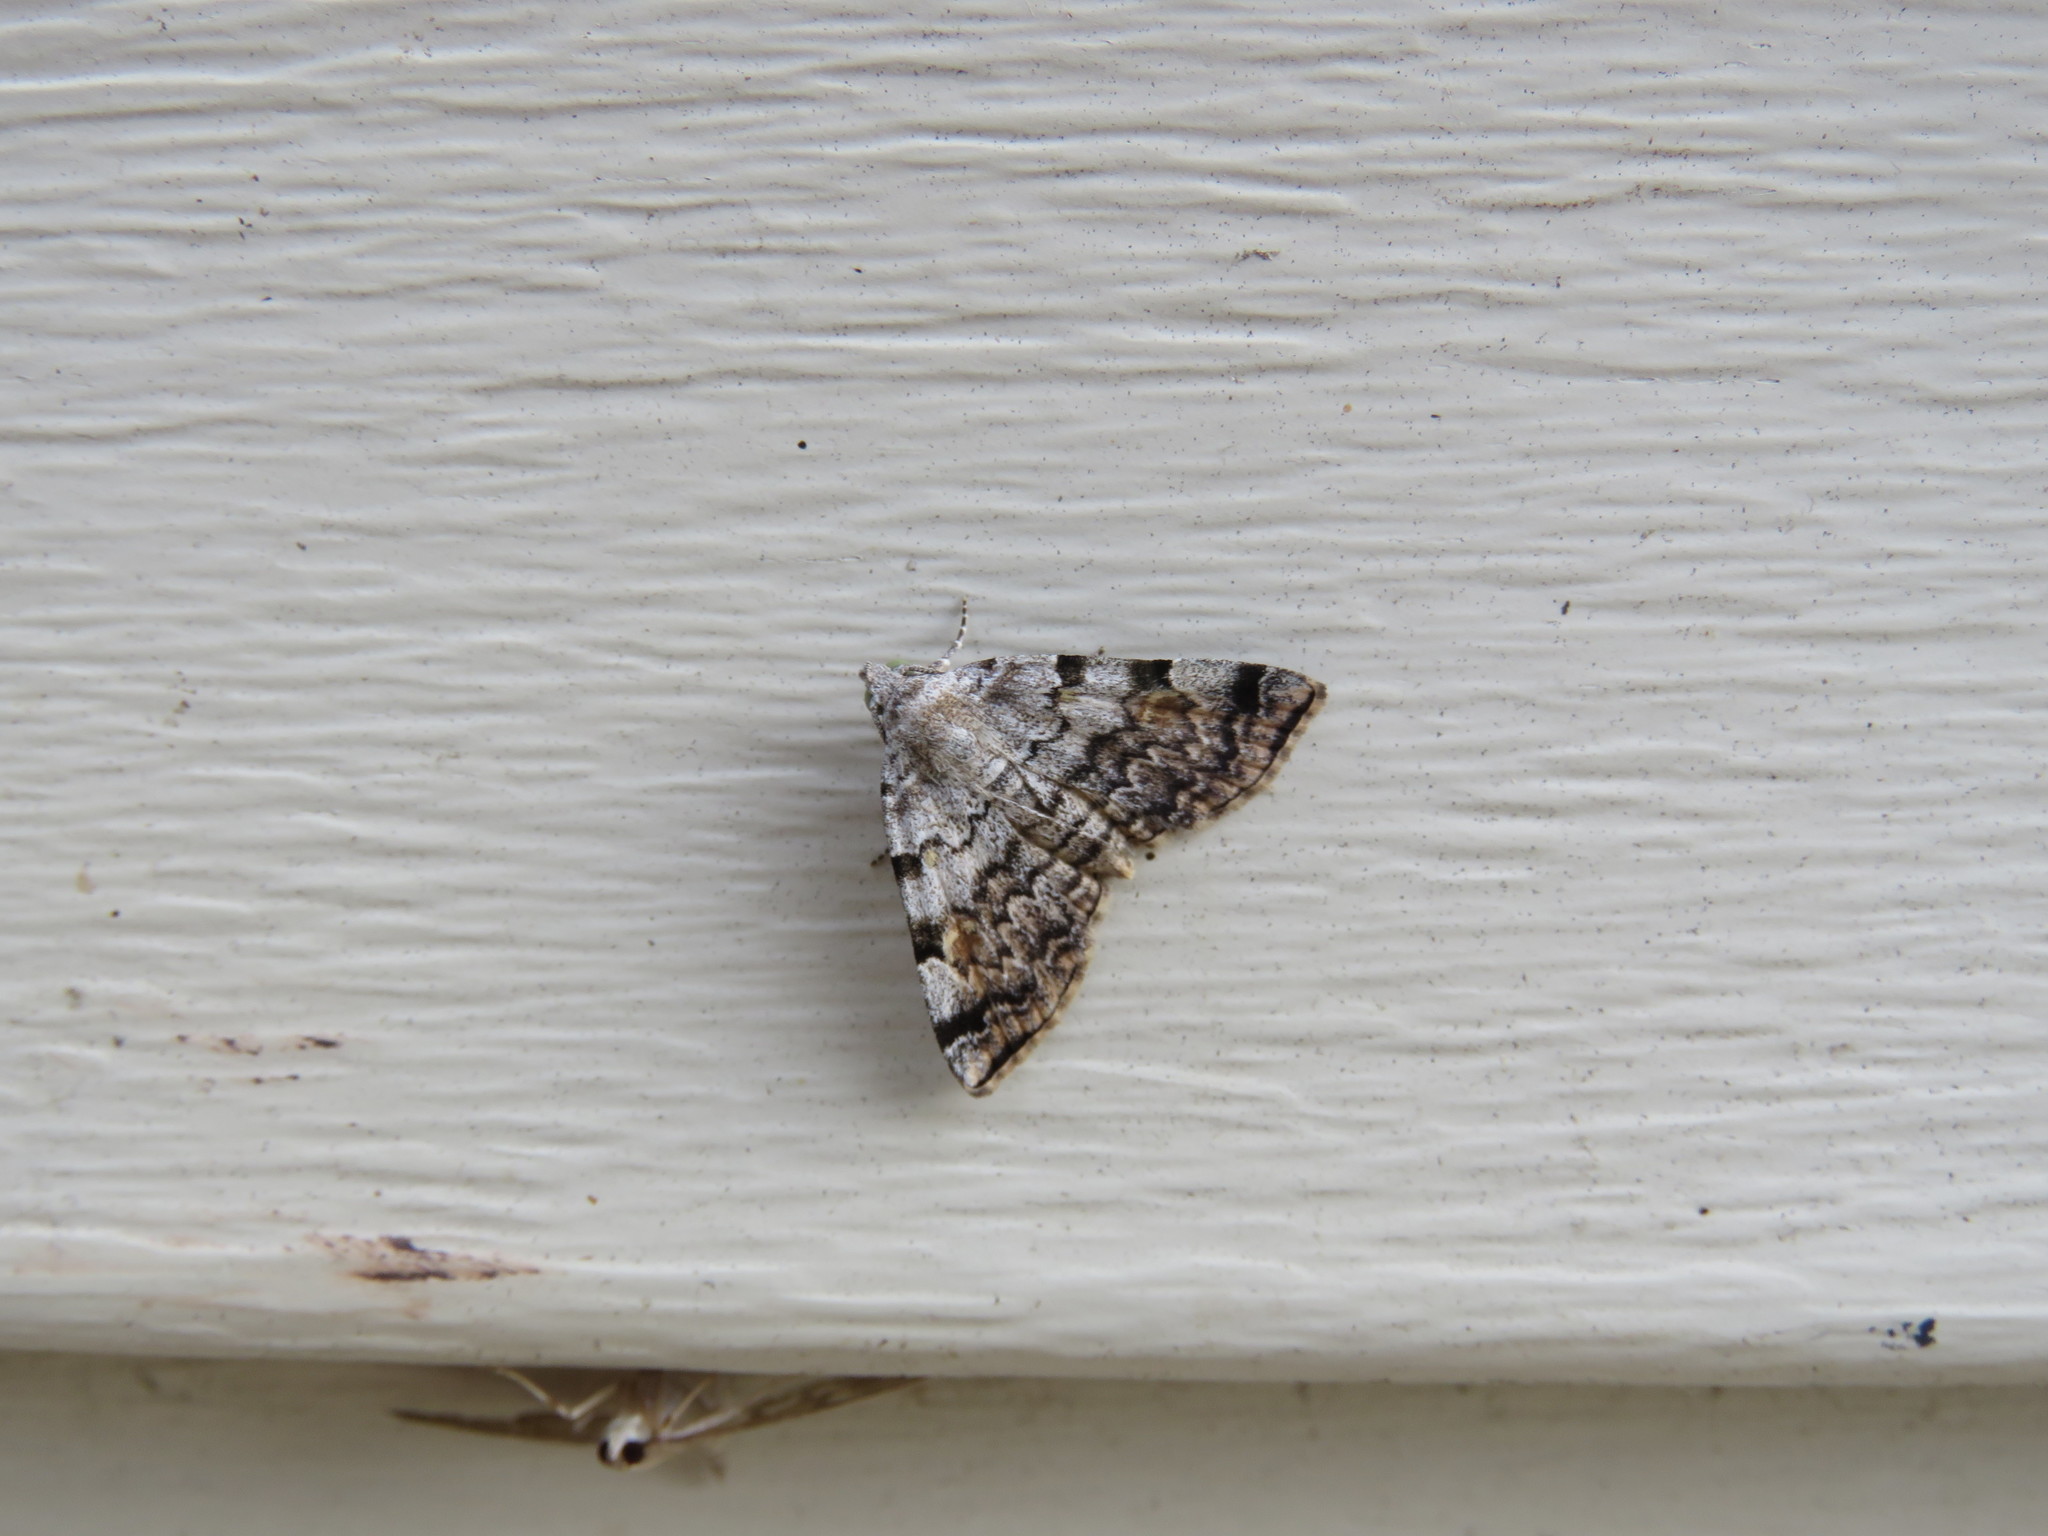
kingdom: Animalia
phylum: Arthropoda
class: Insecta
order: Lepidoptera
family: Erebidae
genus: Idia
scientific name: Idia americalis
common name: American idia moth
